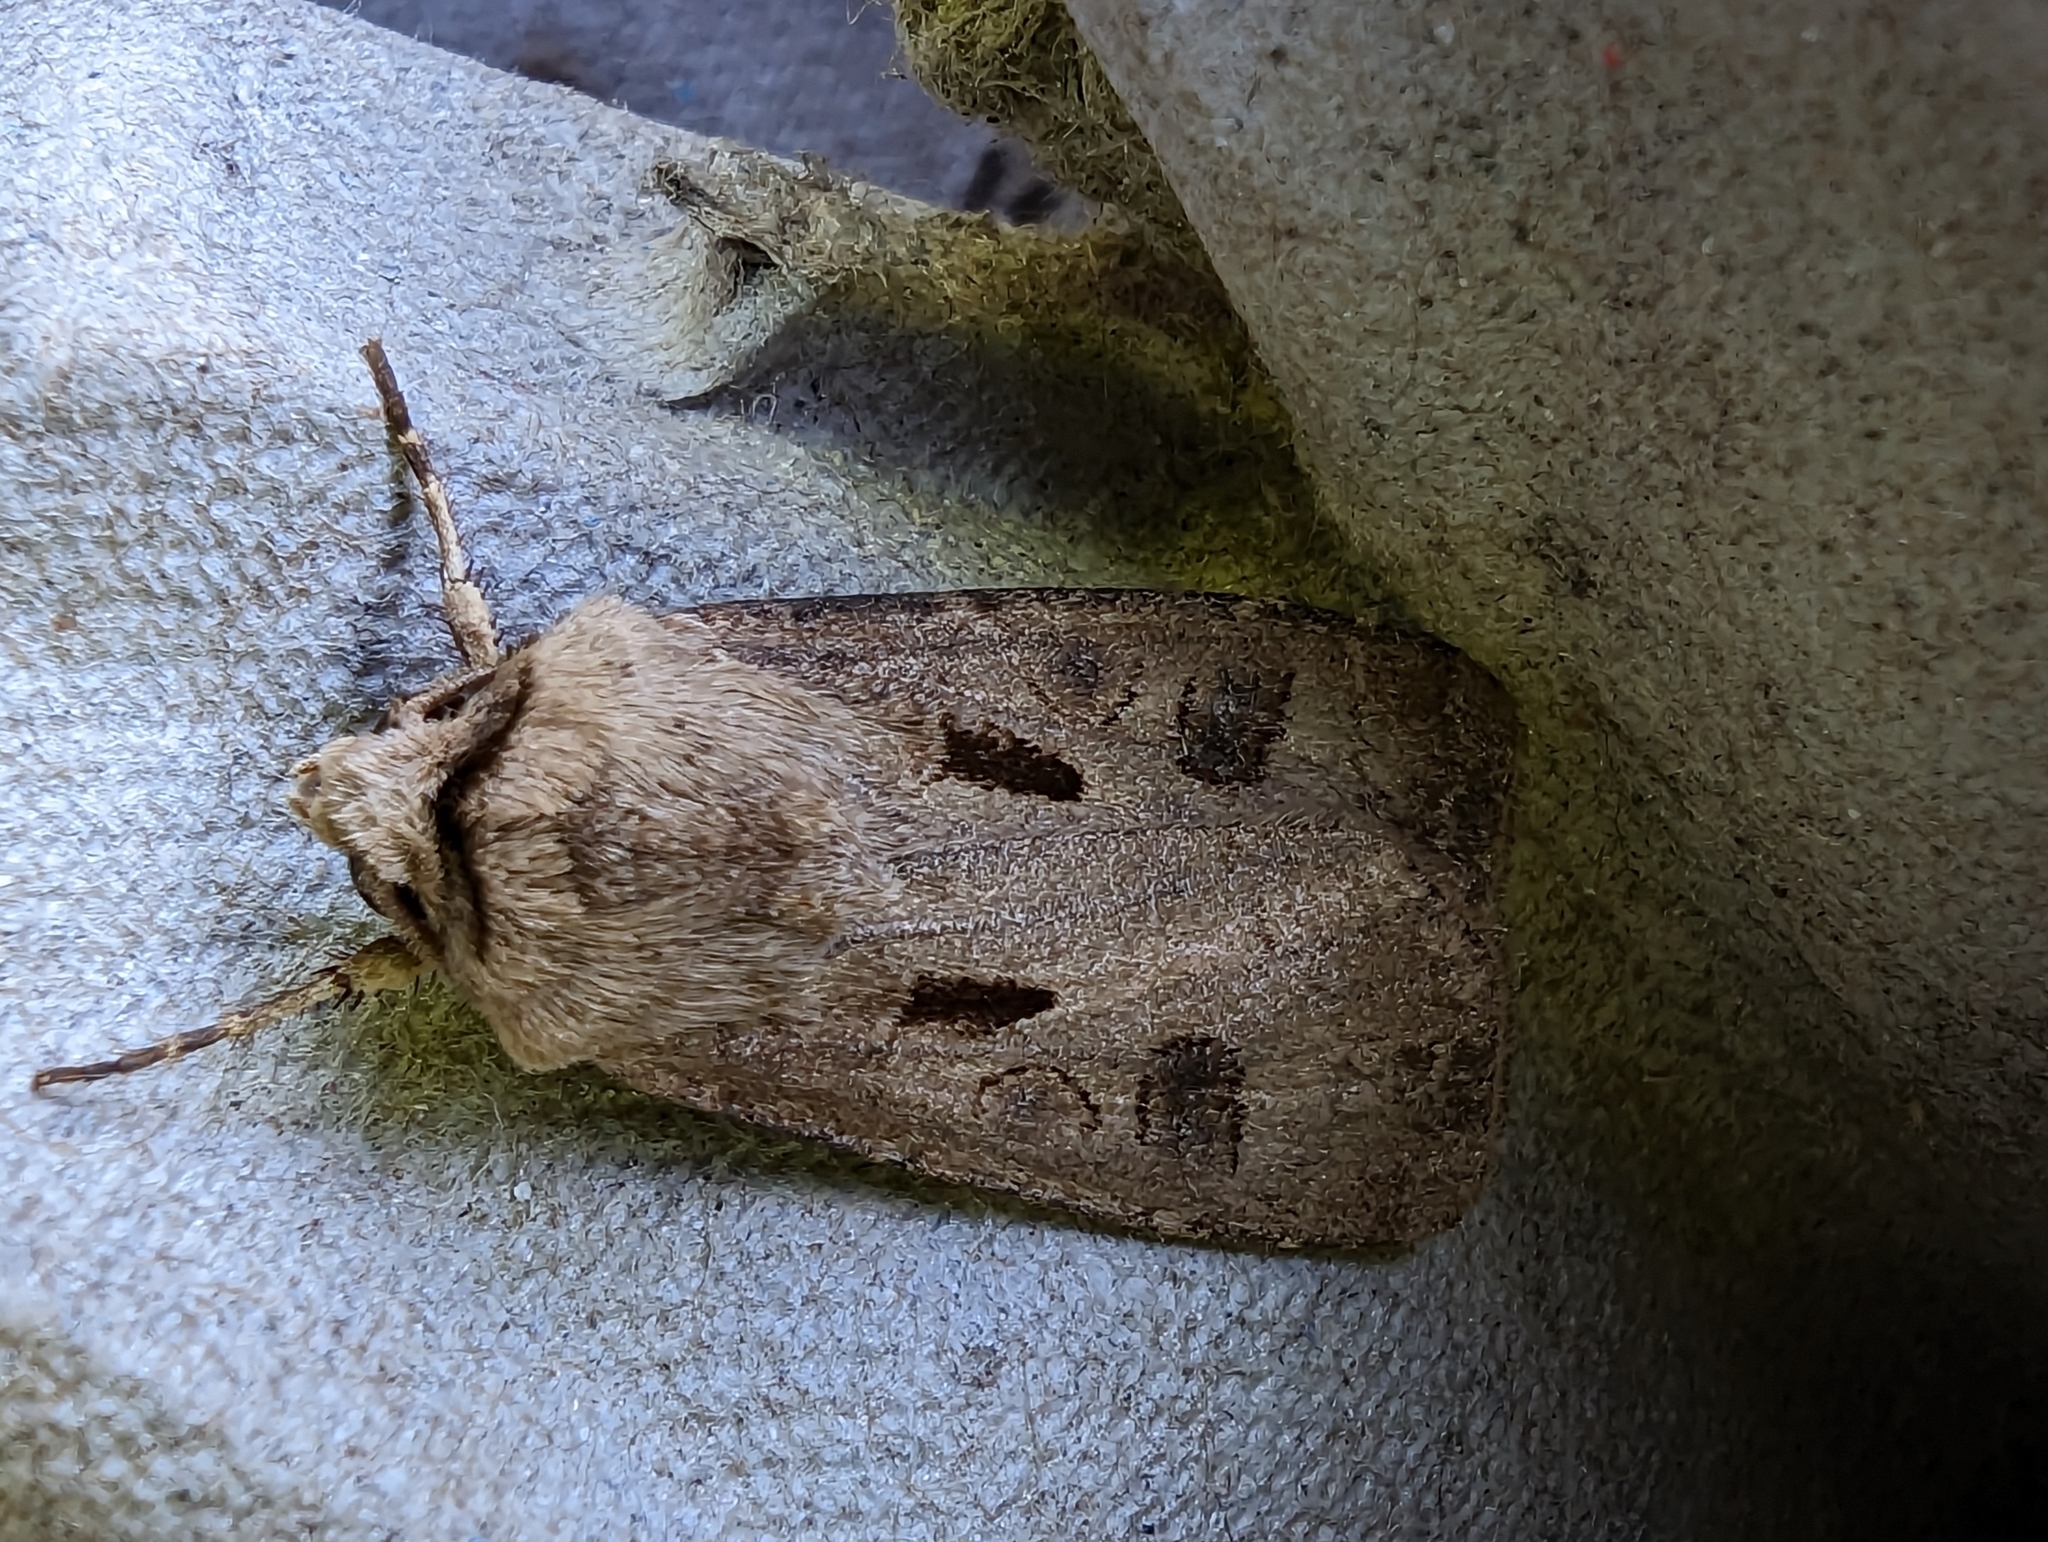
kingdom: Animalia
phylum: Arthropoda
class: Insecta
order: Lepidoptera
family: Noctuidae
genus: Agrotis
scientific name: Agrotis exclamationis
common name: Heart and dart
